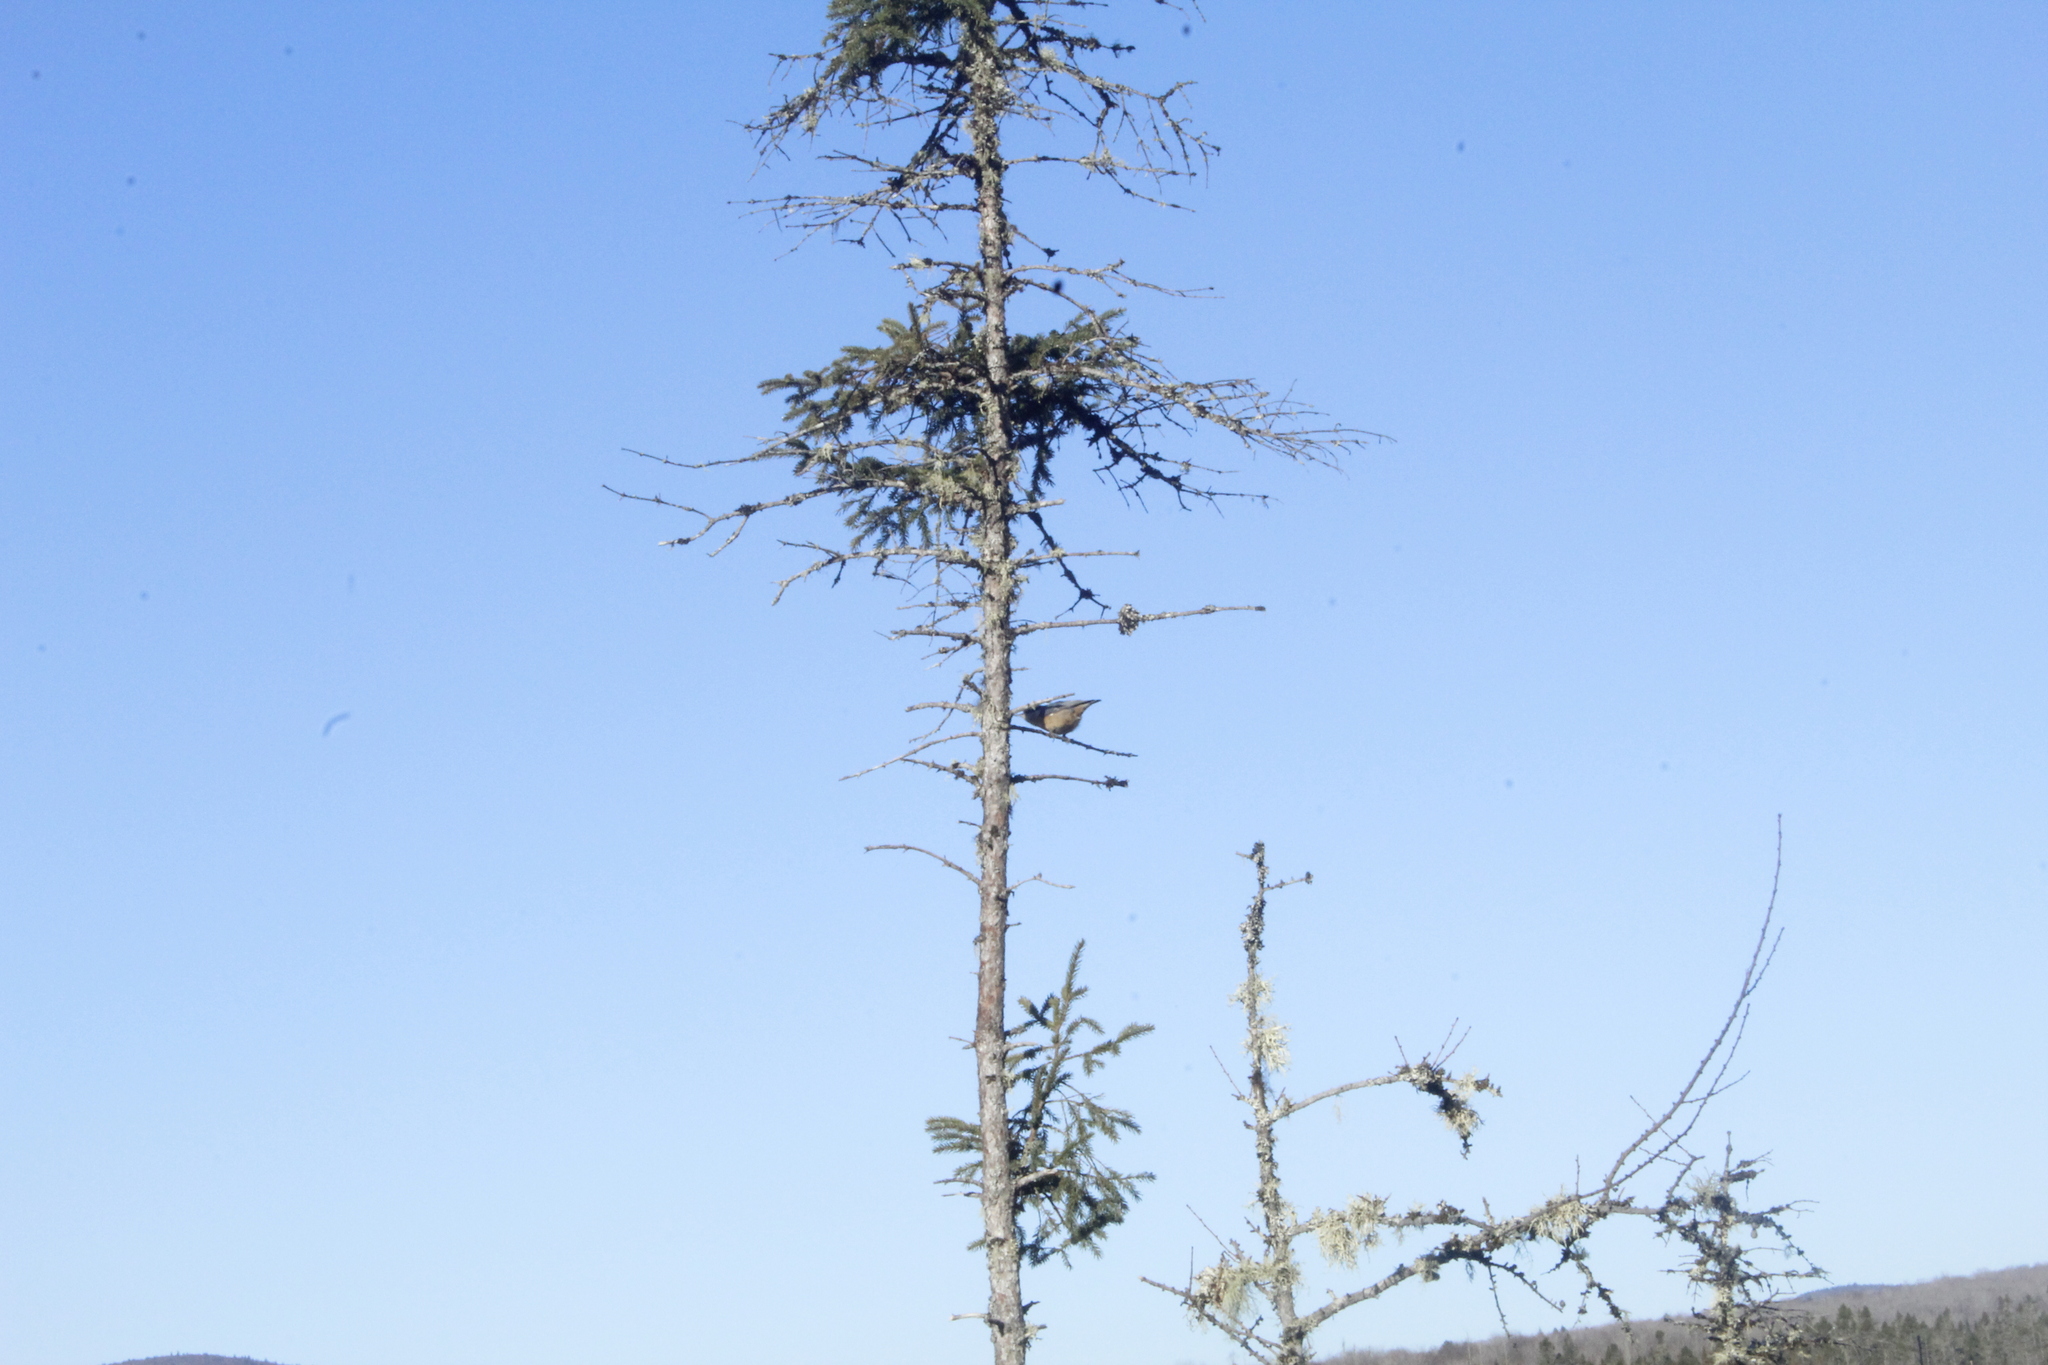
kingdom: Animalia
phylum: Chordata
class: Aves
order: Passeriformes
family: Sittidae
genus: Sitta
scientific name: Sitta canadensis
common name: Red-breasted nuthatch
